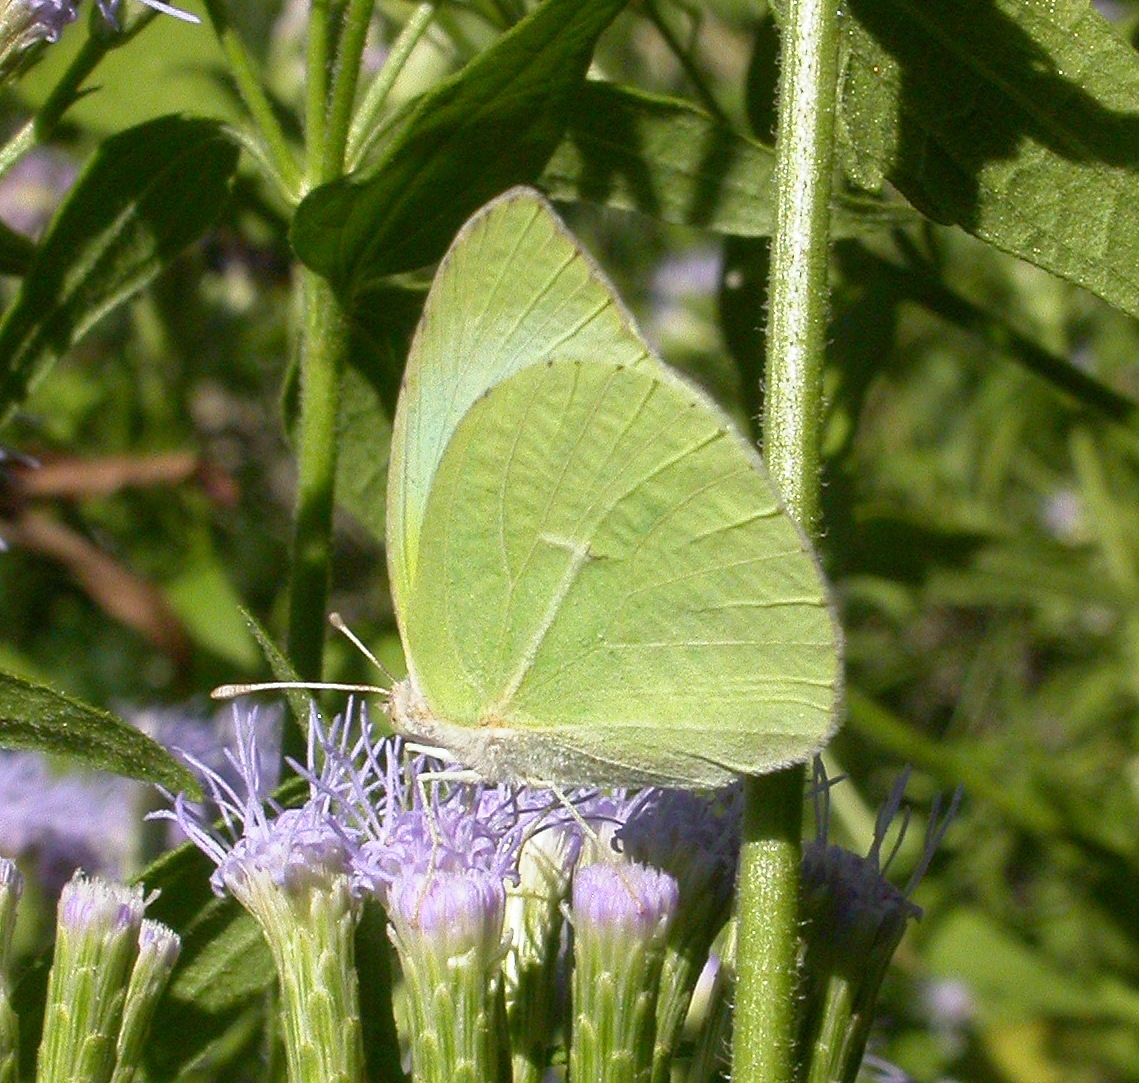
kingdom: Animalia
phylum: Arthropoda
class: Insecta
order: Lepidoptera
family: Pieridae
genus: Kricogonia
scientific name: Kricogonia lyside
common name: Guayacan sulphur,
